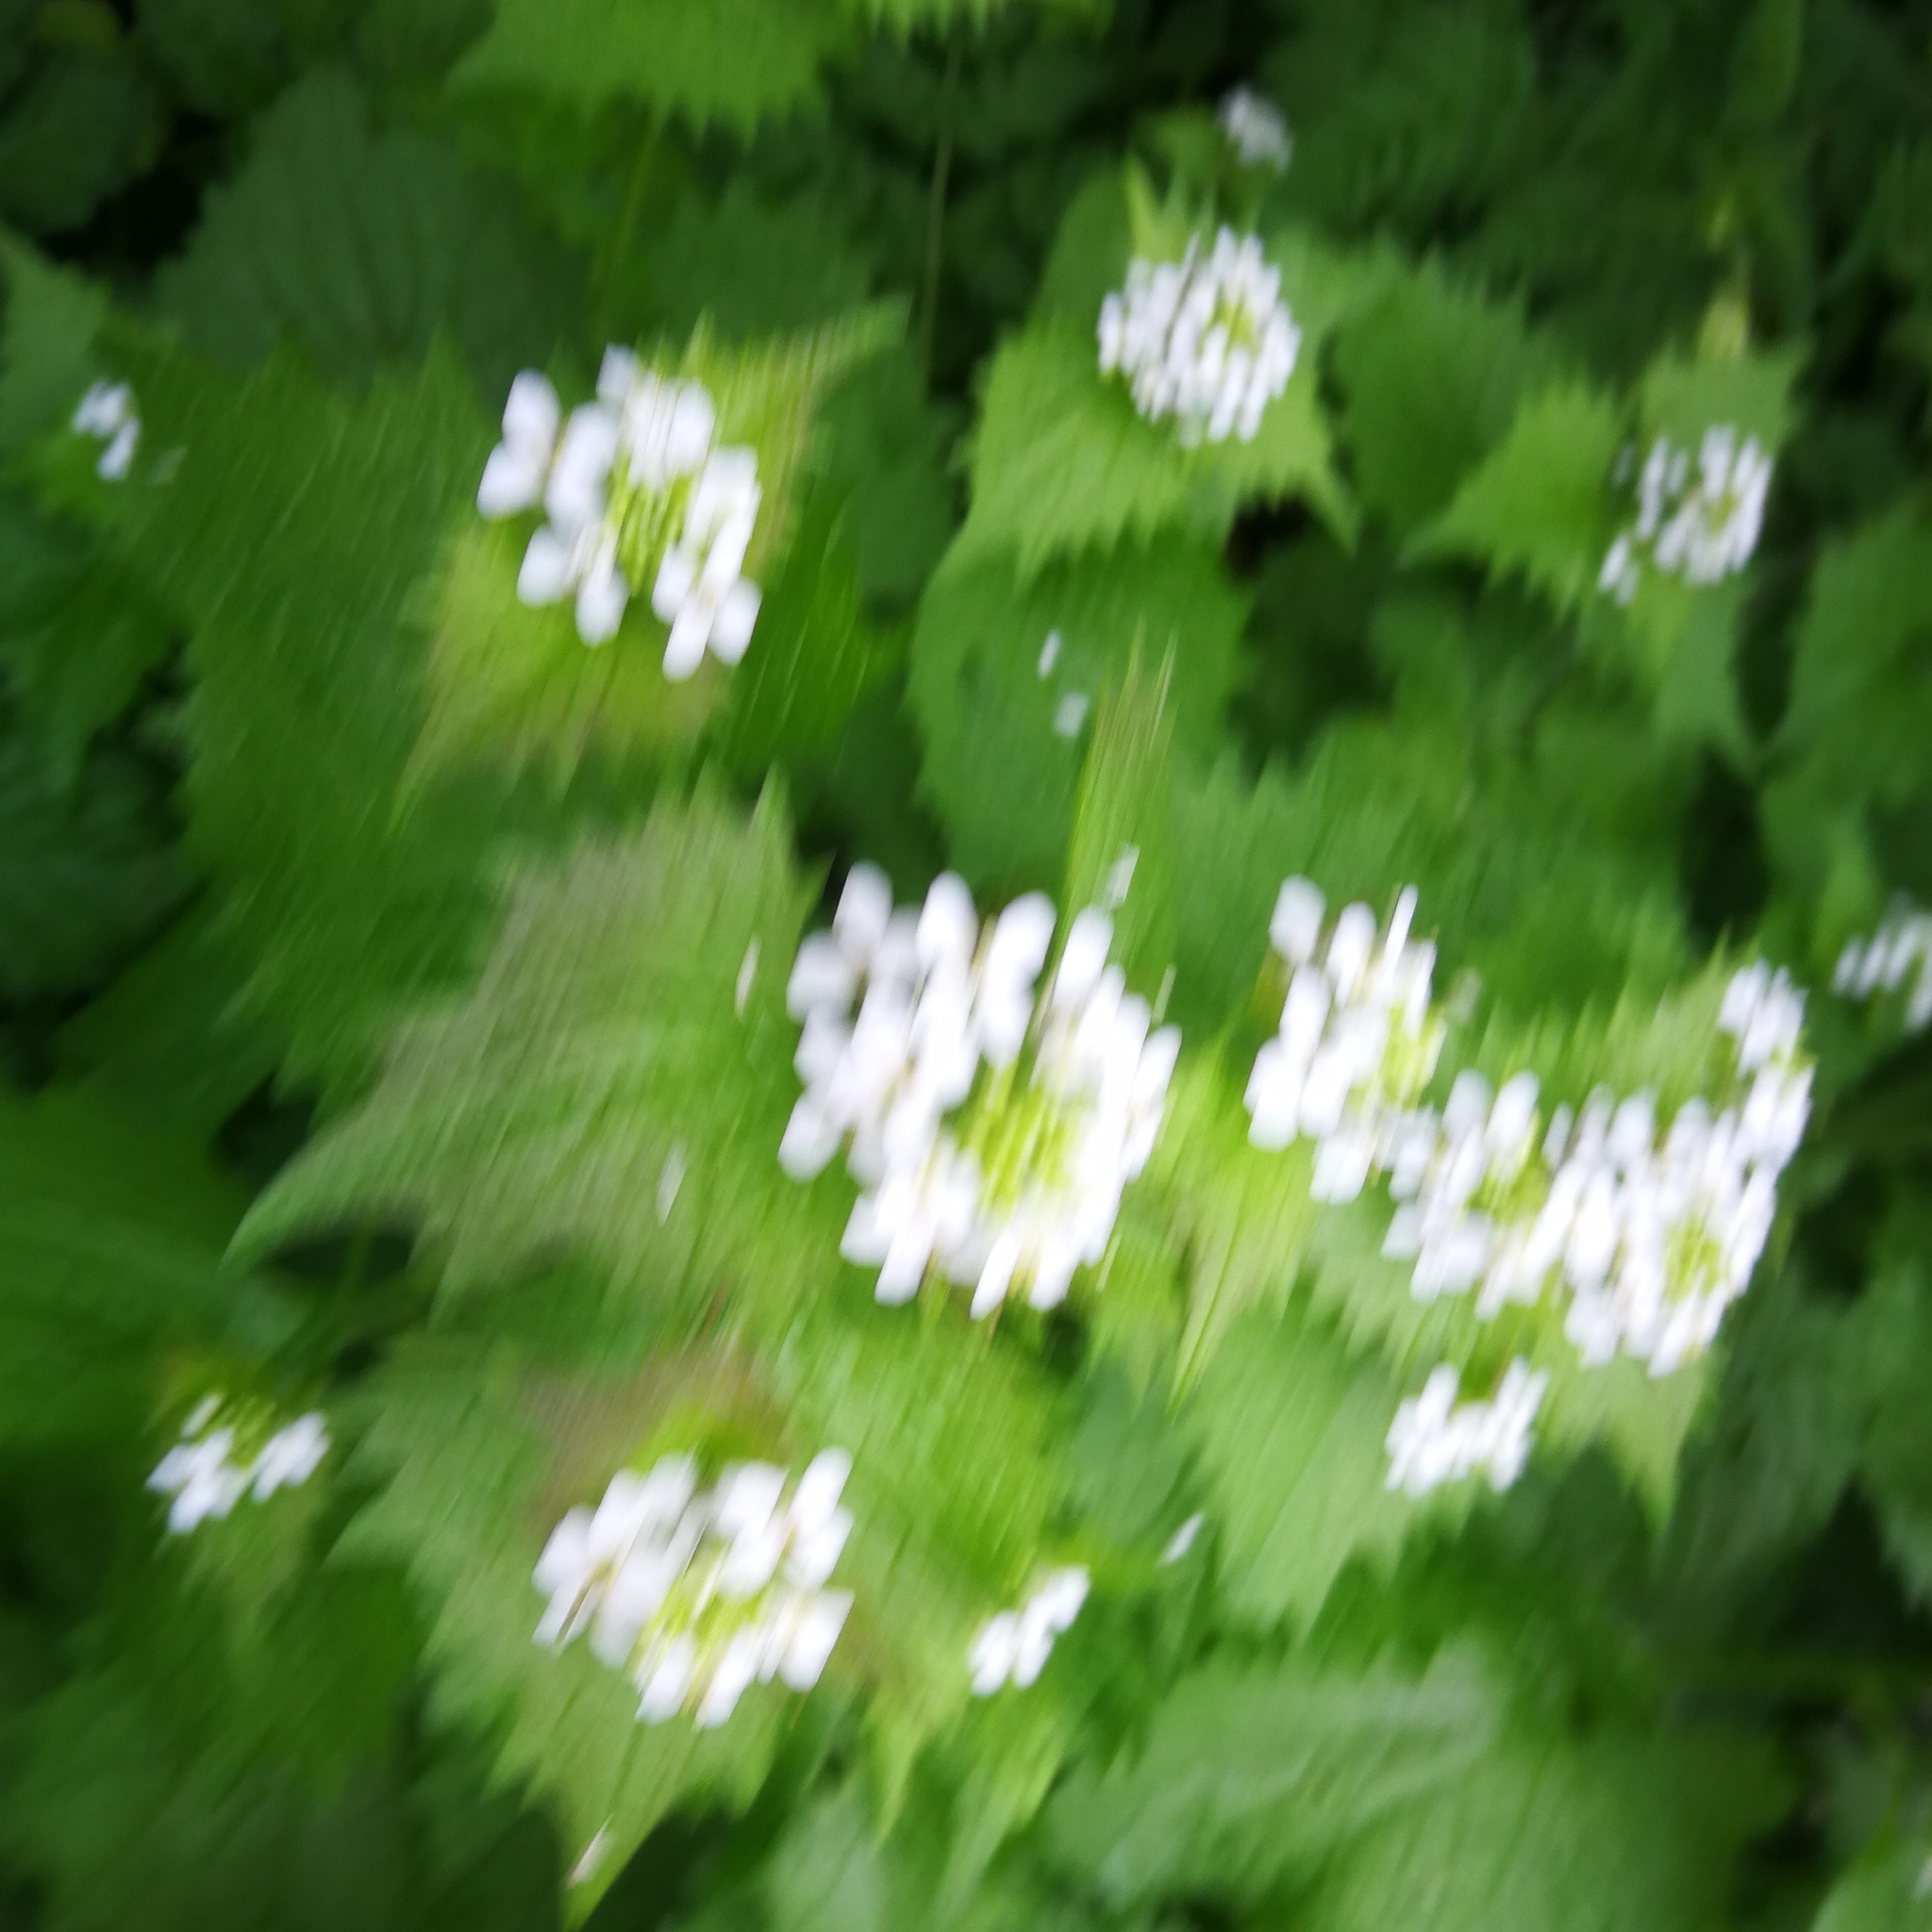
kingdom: Plantae
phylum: Tracheophyta
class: Magnoliopsida
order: Brassicales
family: Brassicaceae
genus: Alliaria
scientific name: Alliaria petiolata
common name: Garlic mustard
